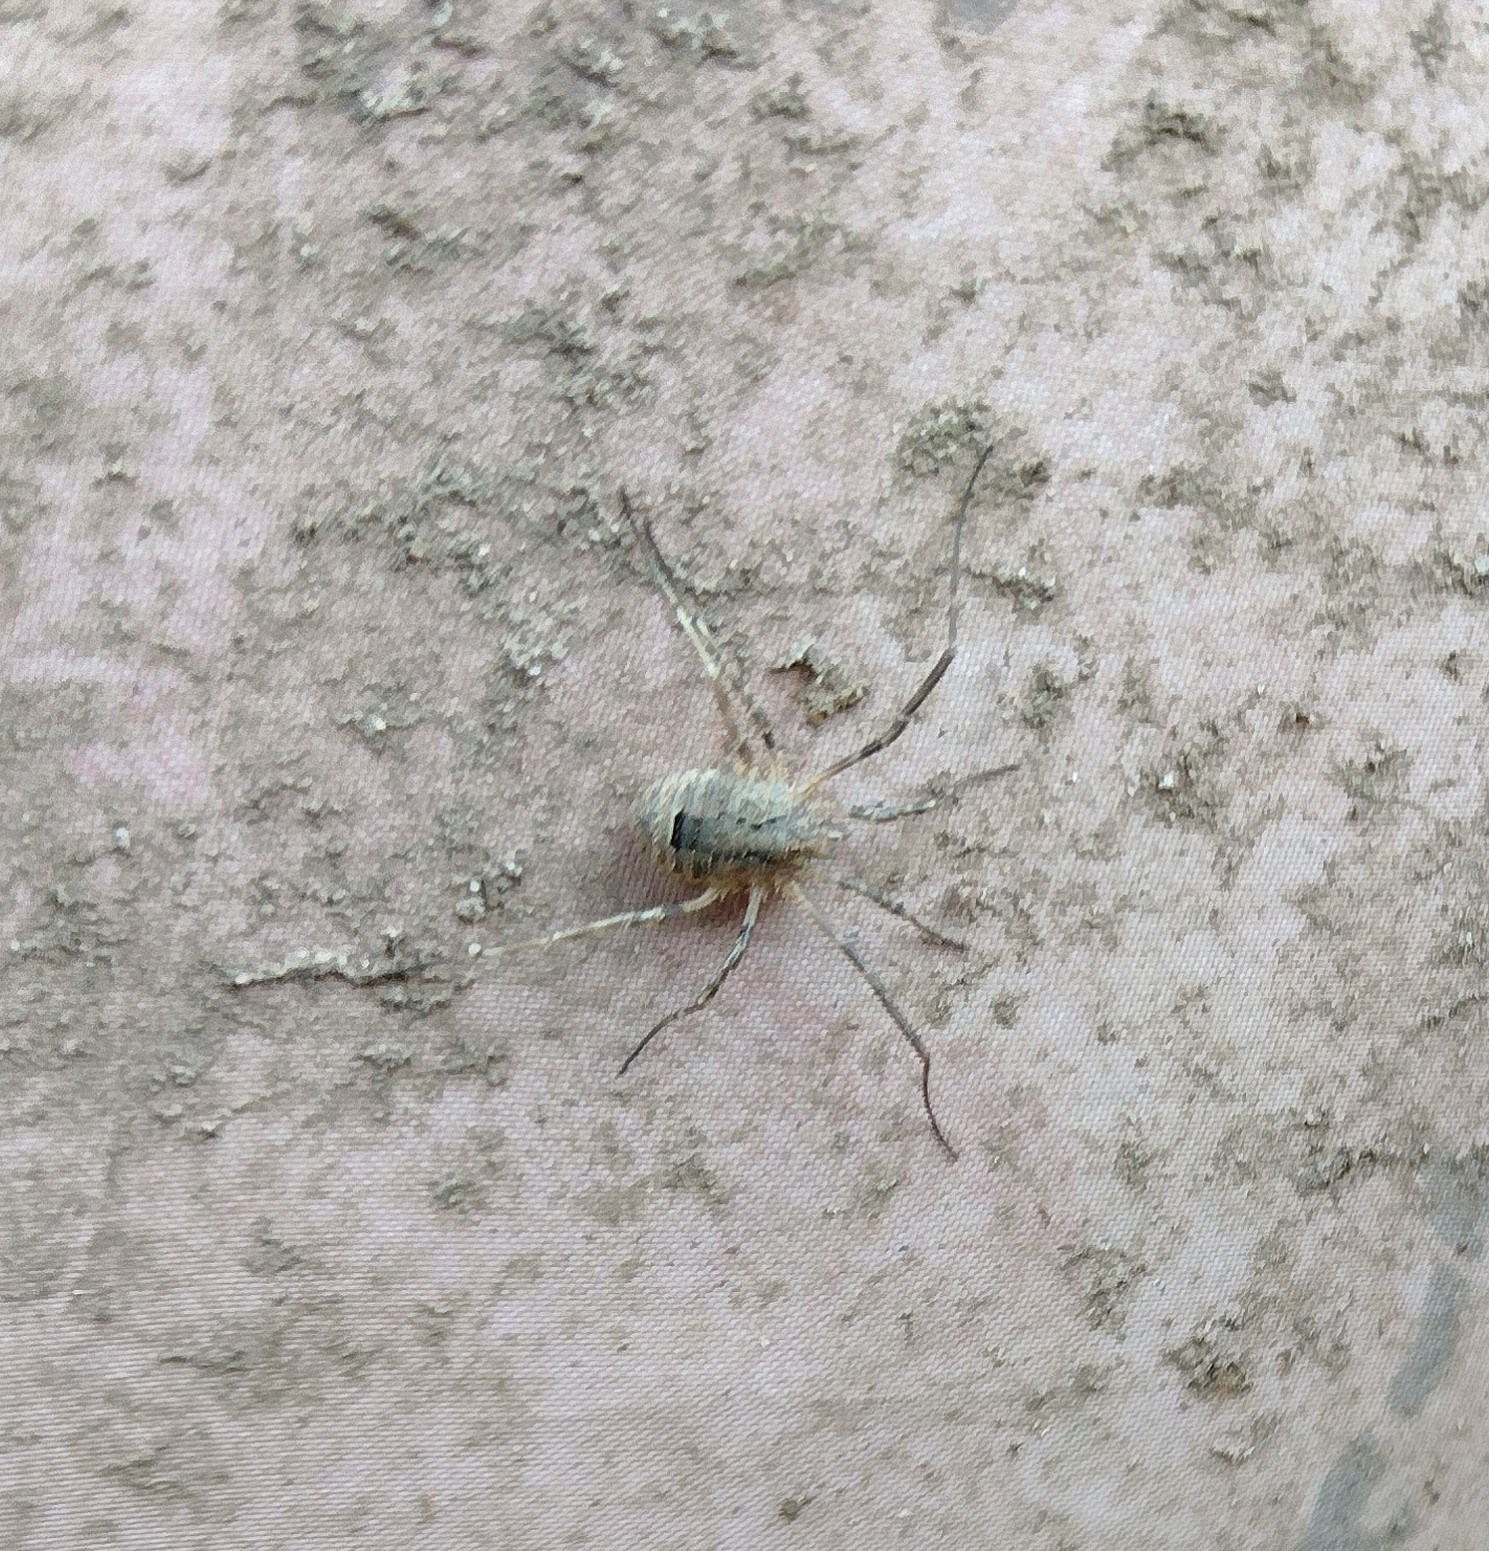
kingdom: Animalia
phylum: Arthropoda
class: Arachnida
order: Opiliones
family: Phalangiidae
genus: Odiellus
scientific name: Odiellus spinosus
